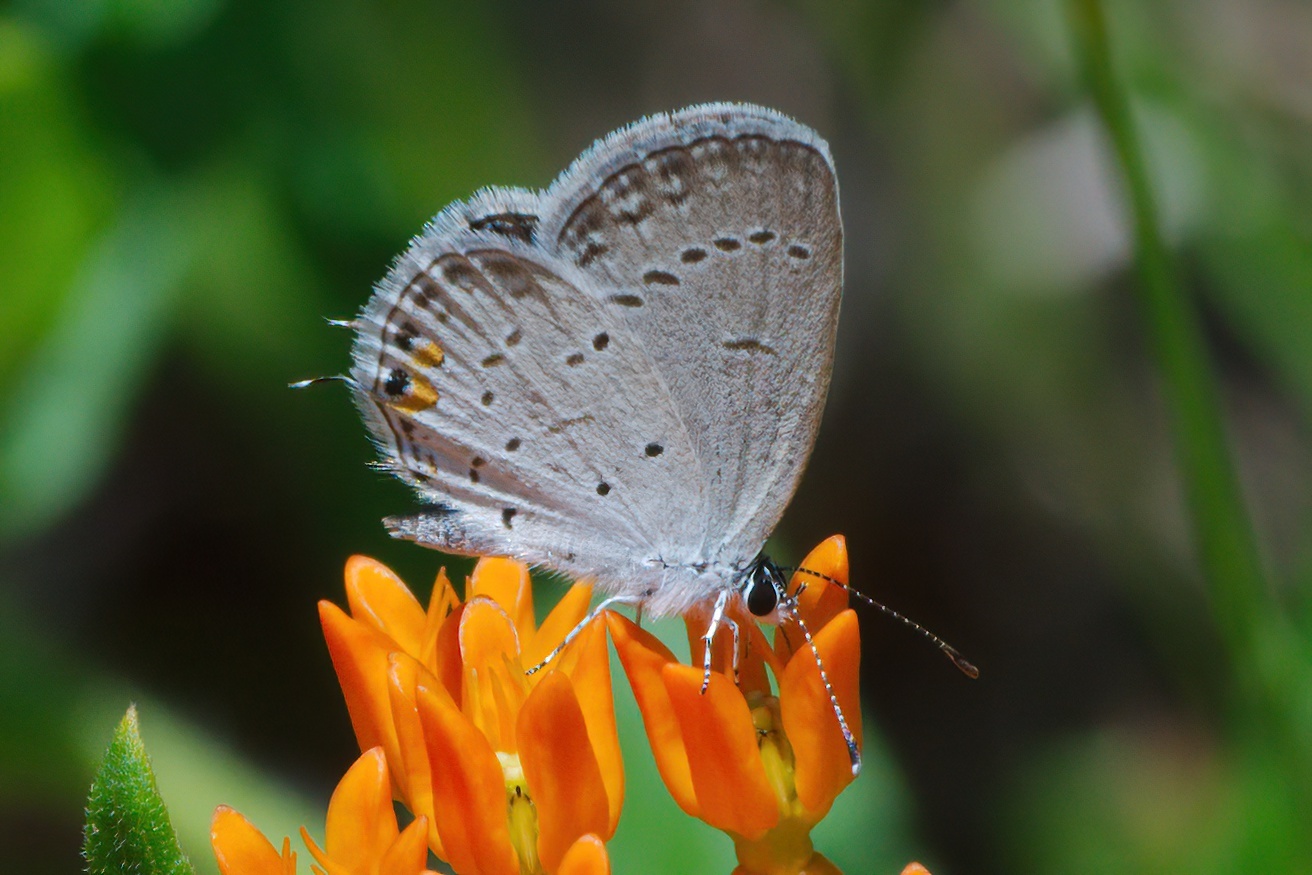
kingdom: Animalia
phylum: Arthropoda
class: Insecta
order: Lepidoptera
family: Lycaenidae
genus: Elkalyce
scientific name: Elkalyce comyntas
